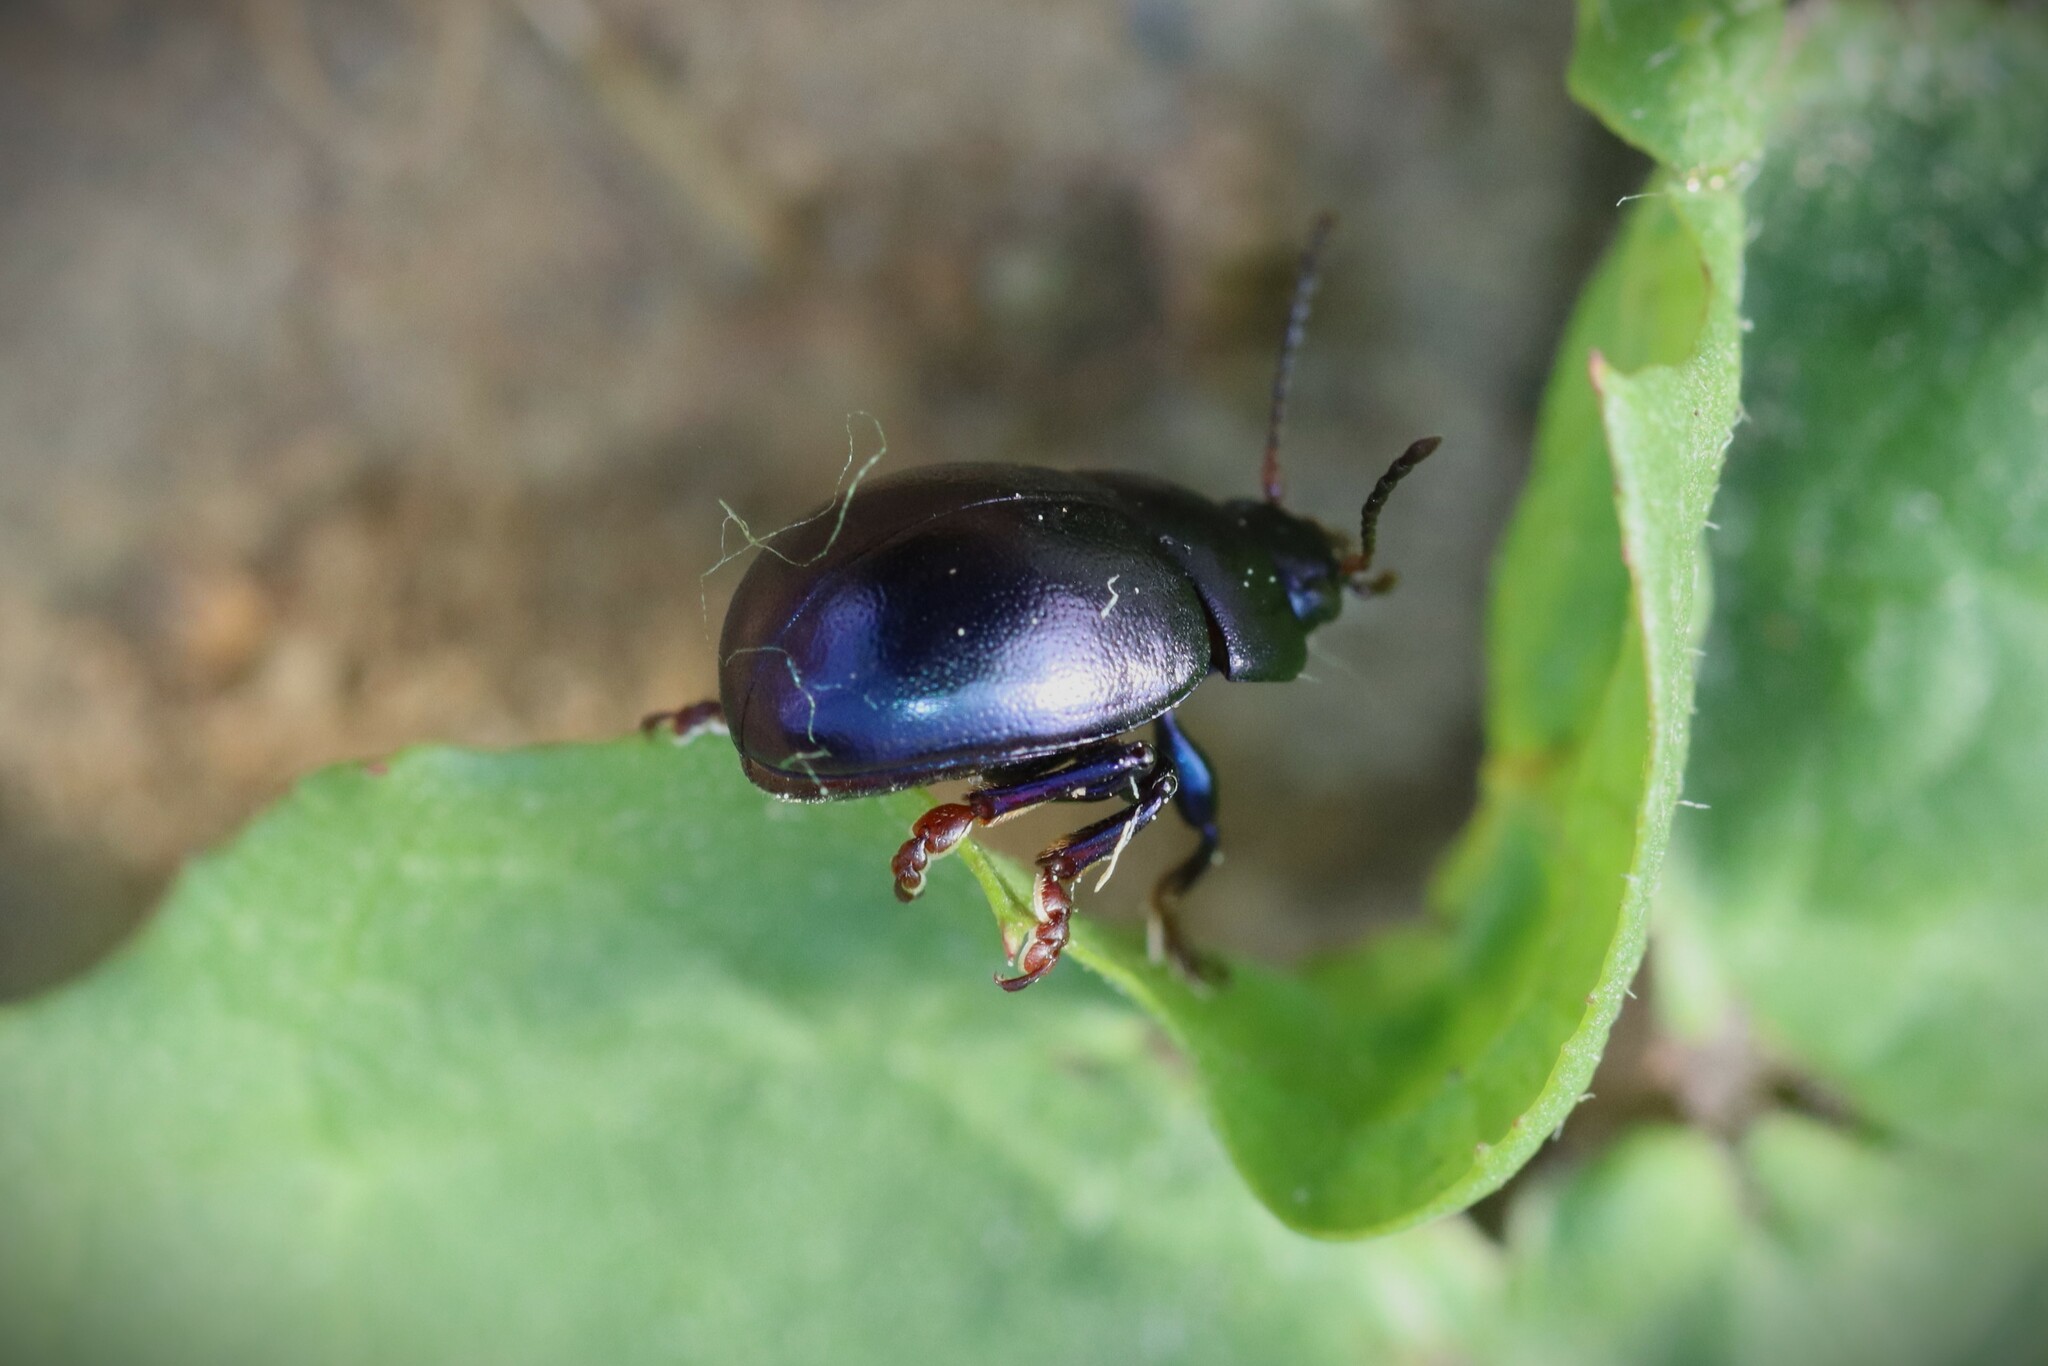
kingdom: Animalia
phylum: Arthropoda
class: Insecta
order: Coleoptera
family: Chrysomelidae
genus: Chrysolina
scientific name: Chrysolina sturmi
